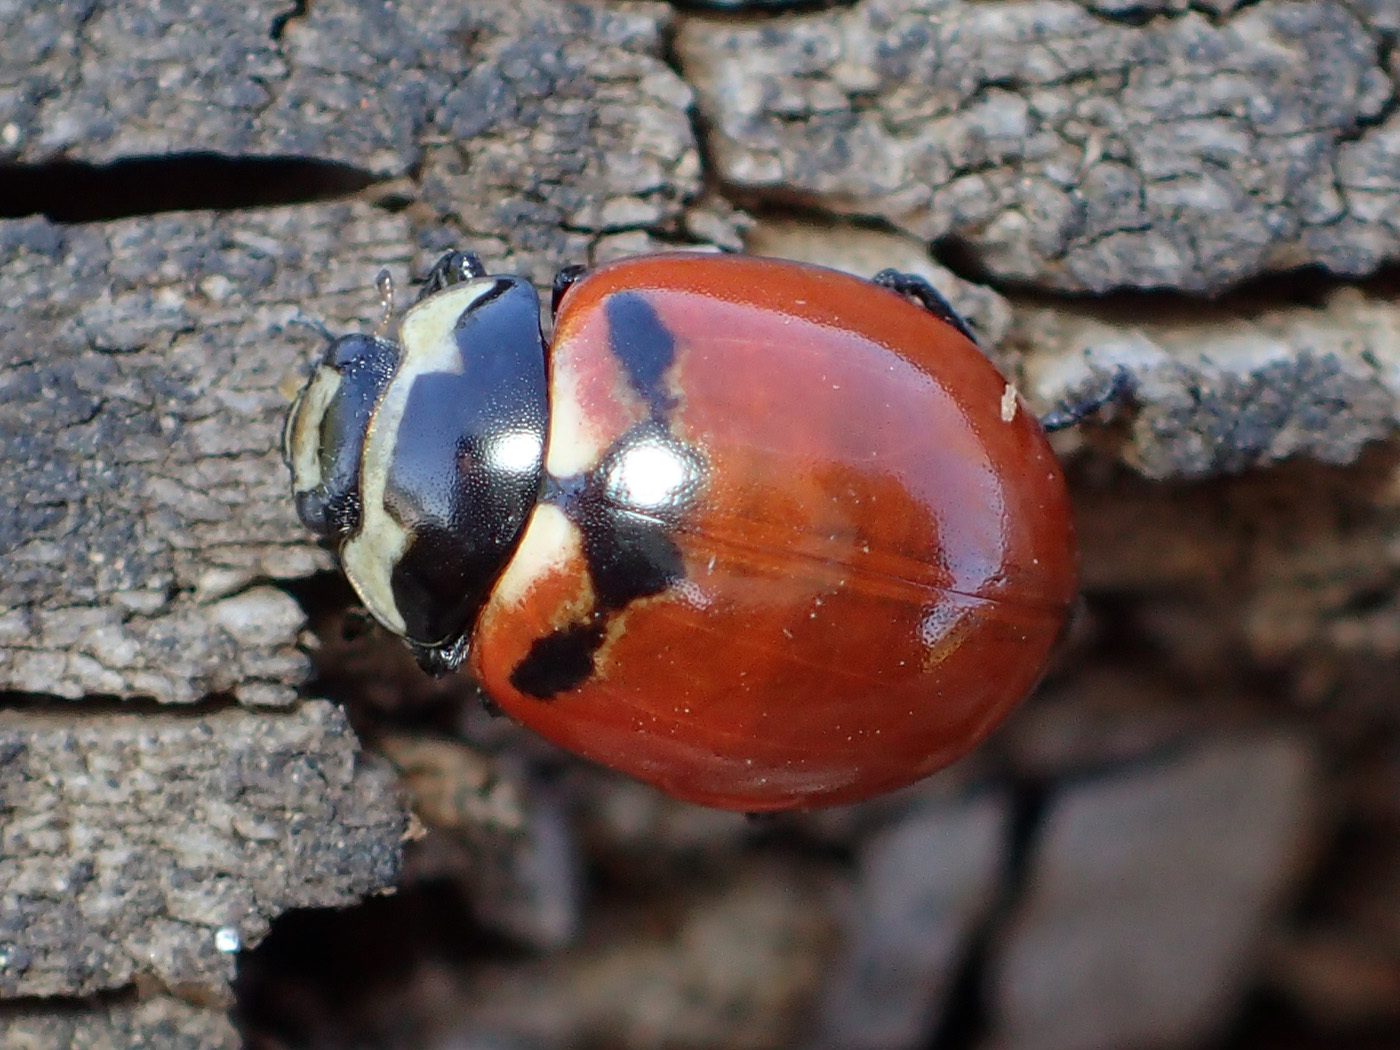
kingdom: Animalia
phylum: Arthropoda
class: Insecta
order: Coleoptera
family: Coccinellidae
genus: Coccinella
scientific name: Coccinella trifasciata
